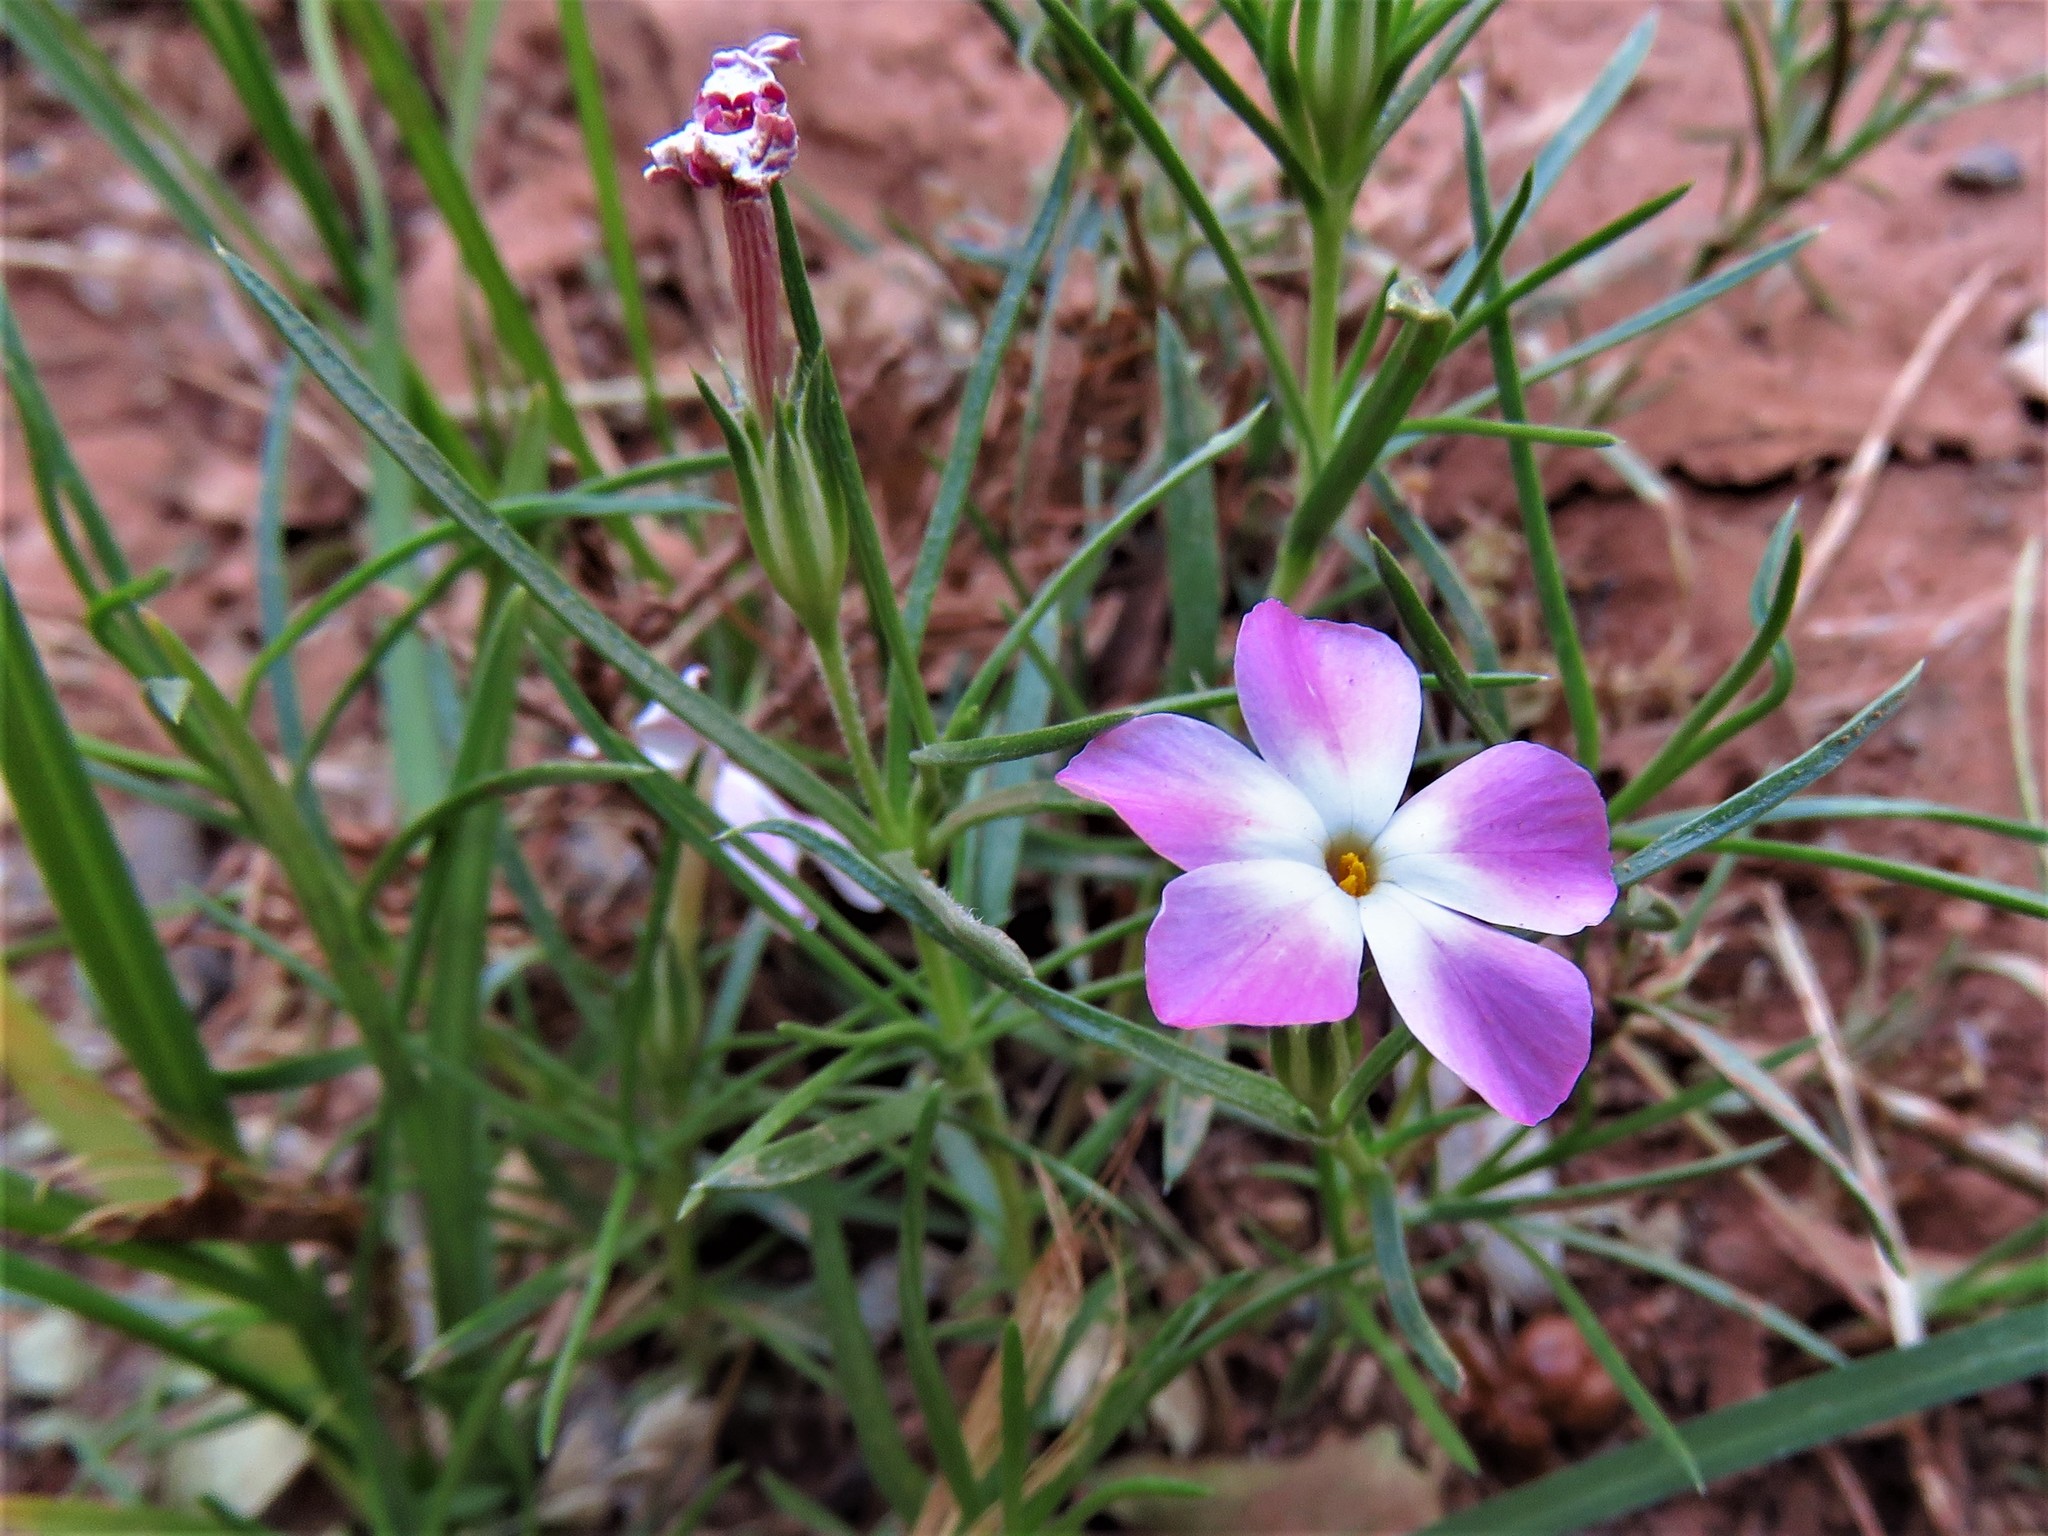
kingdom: Plantae
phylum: Tracheophyta
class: Magnoliopsida
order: Ericales
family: Polemoniaceae
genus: Phlox
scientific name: Phlox austromontana
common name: Desert phlox
